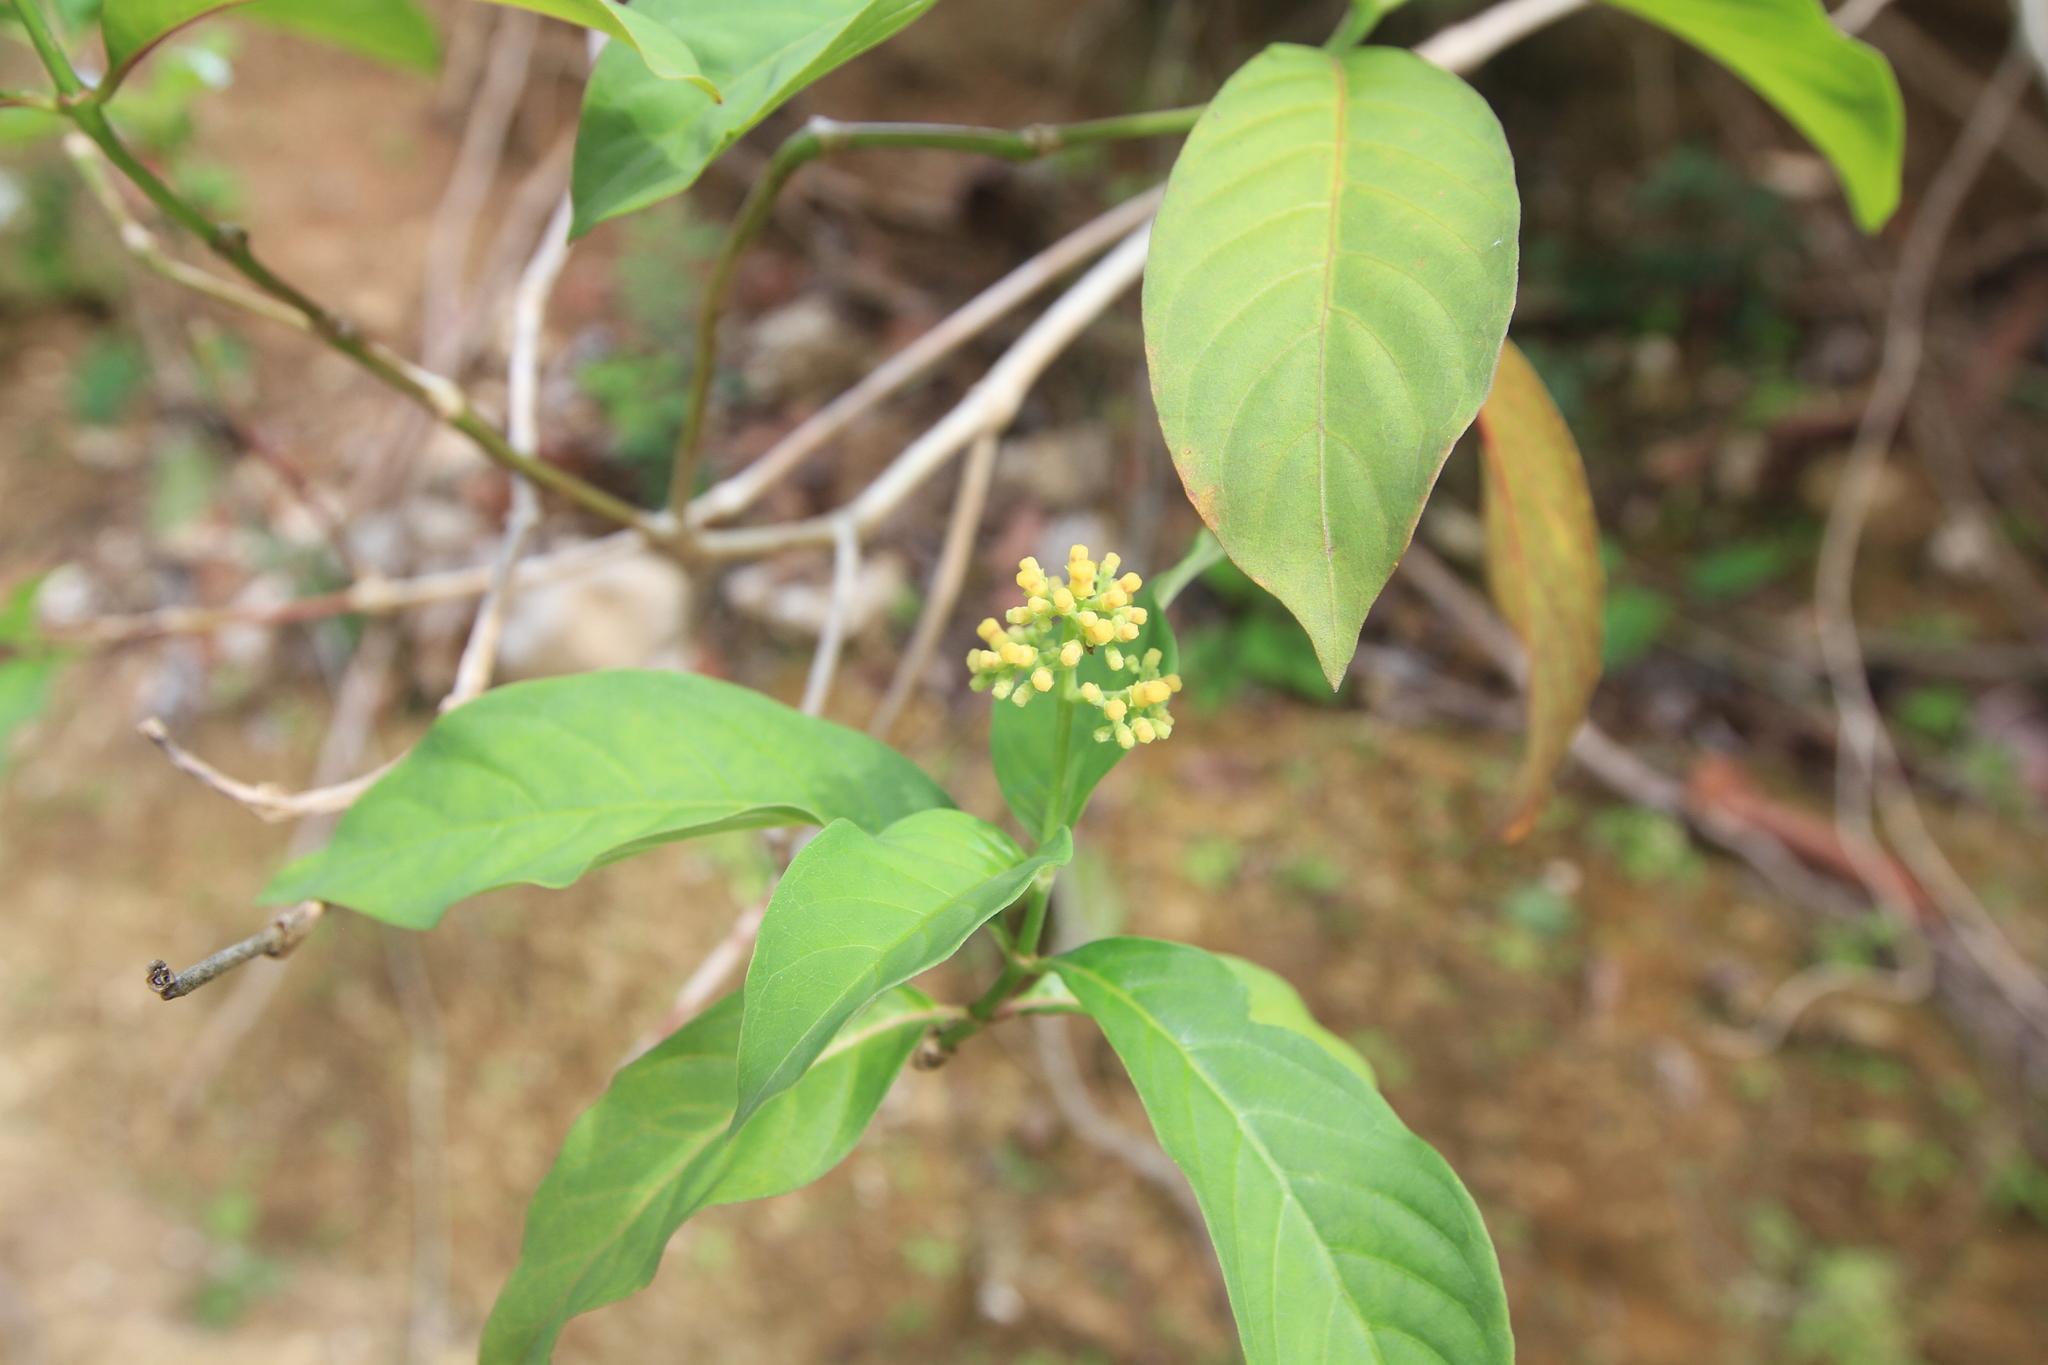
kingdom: Plantae
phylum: Tracheophyta
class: Magnoliopsida
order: Gentianales
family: Rubiaceae
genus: Palicourea
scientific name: Palicourea pubescens
